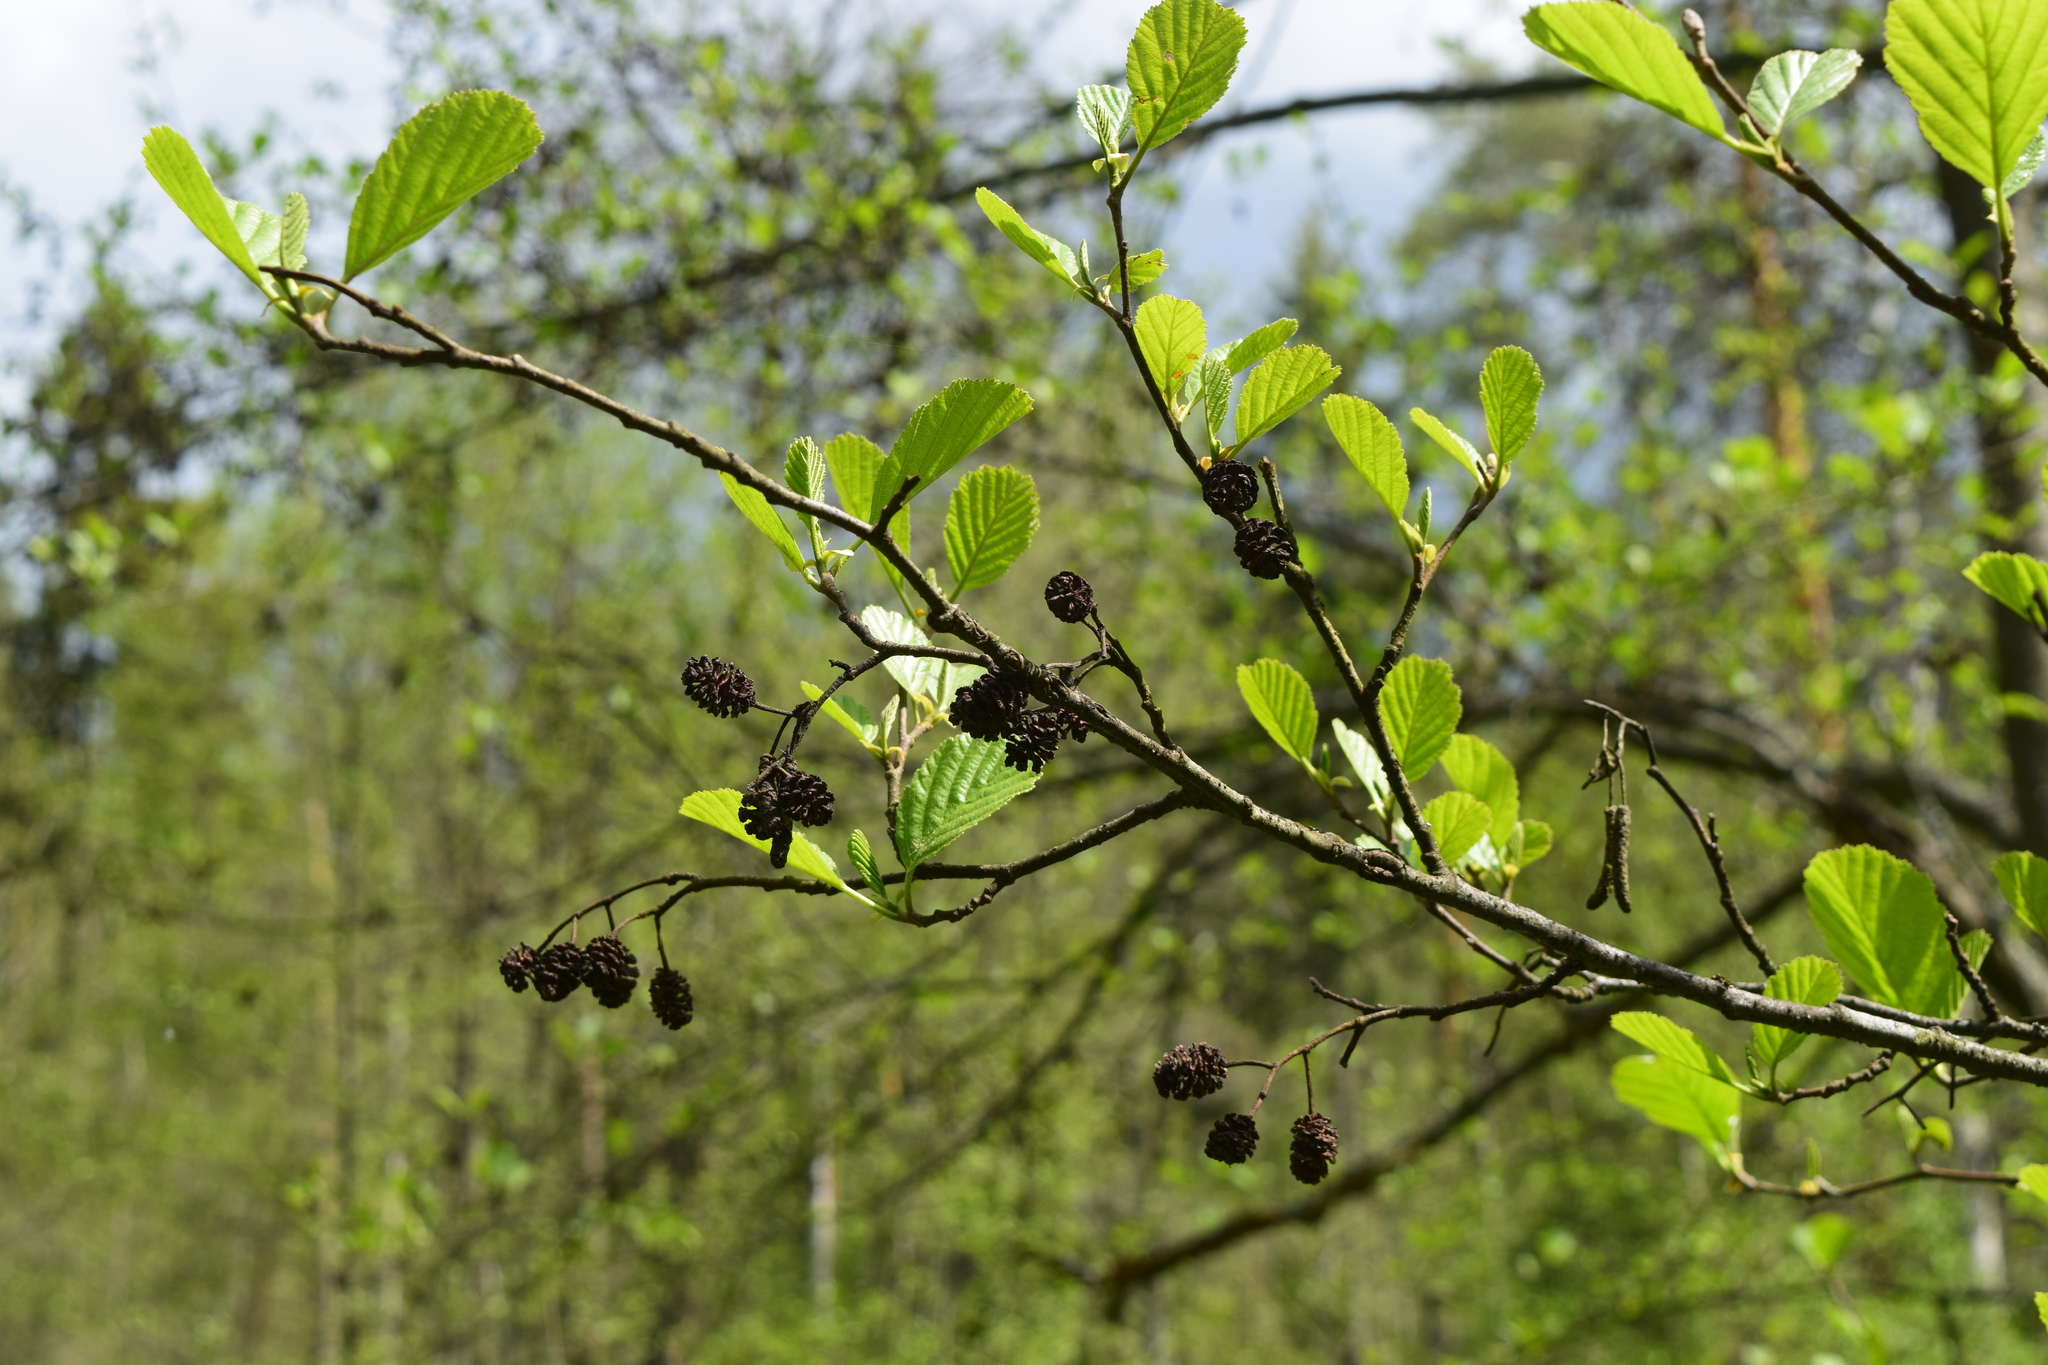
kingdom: Plantae
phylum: Tracheophyta
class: Magnoliopsida
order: Fagales
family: Betulaceae
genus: Alnus
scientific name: Alnus glutinosa
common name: Black alder
